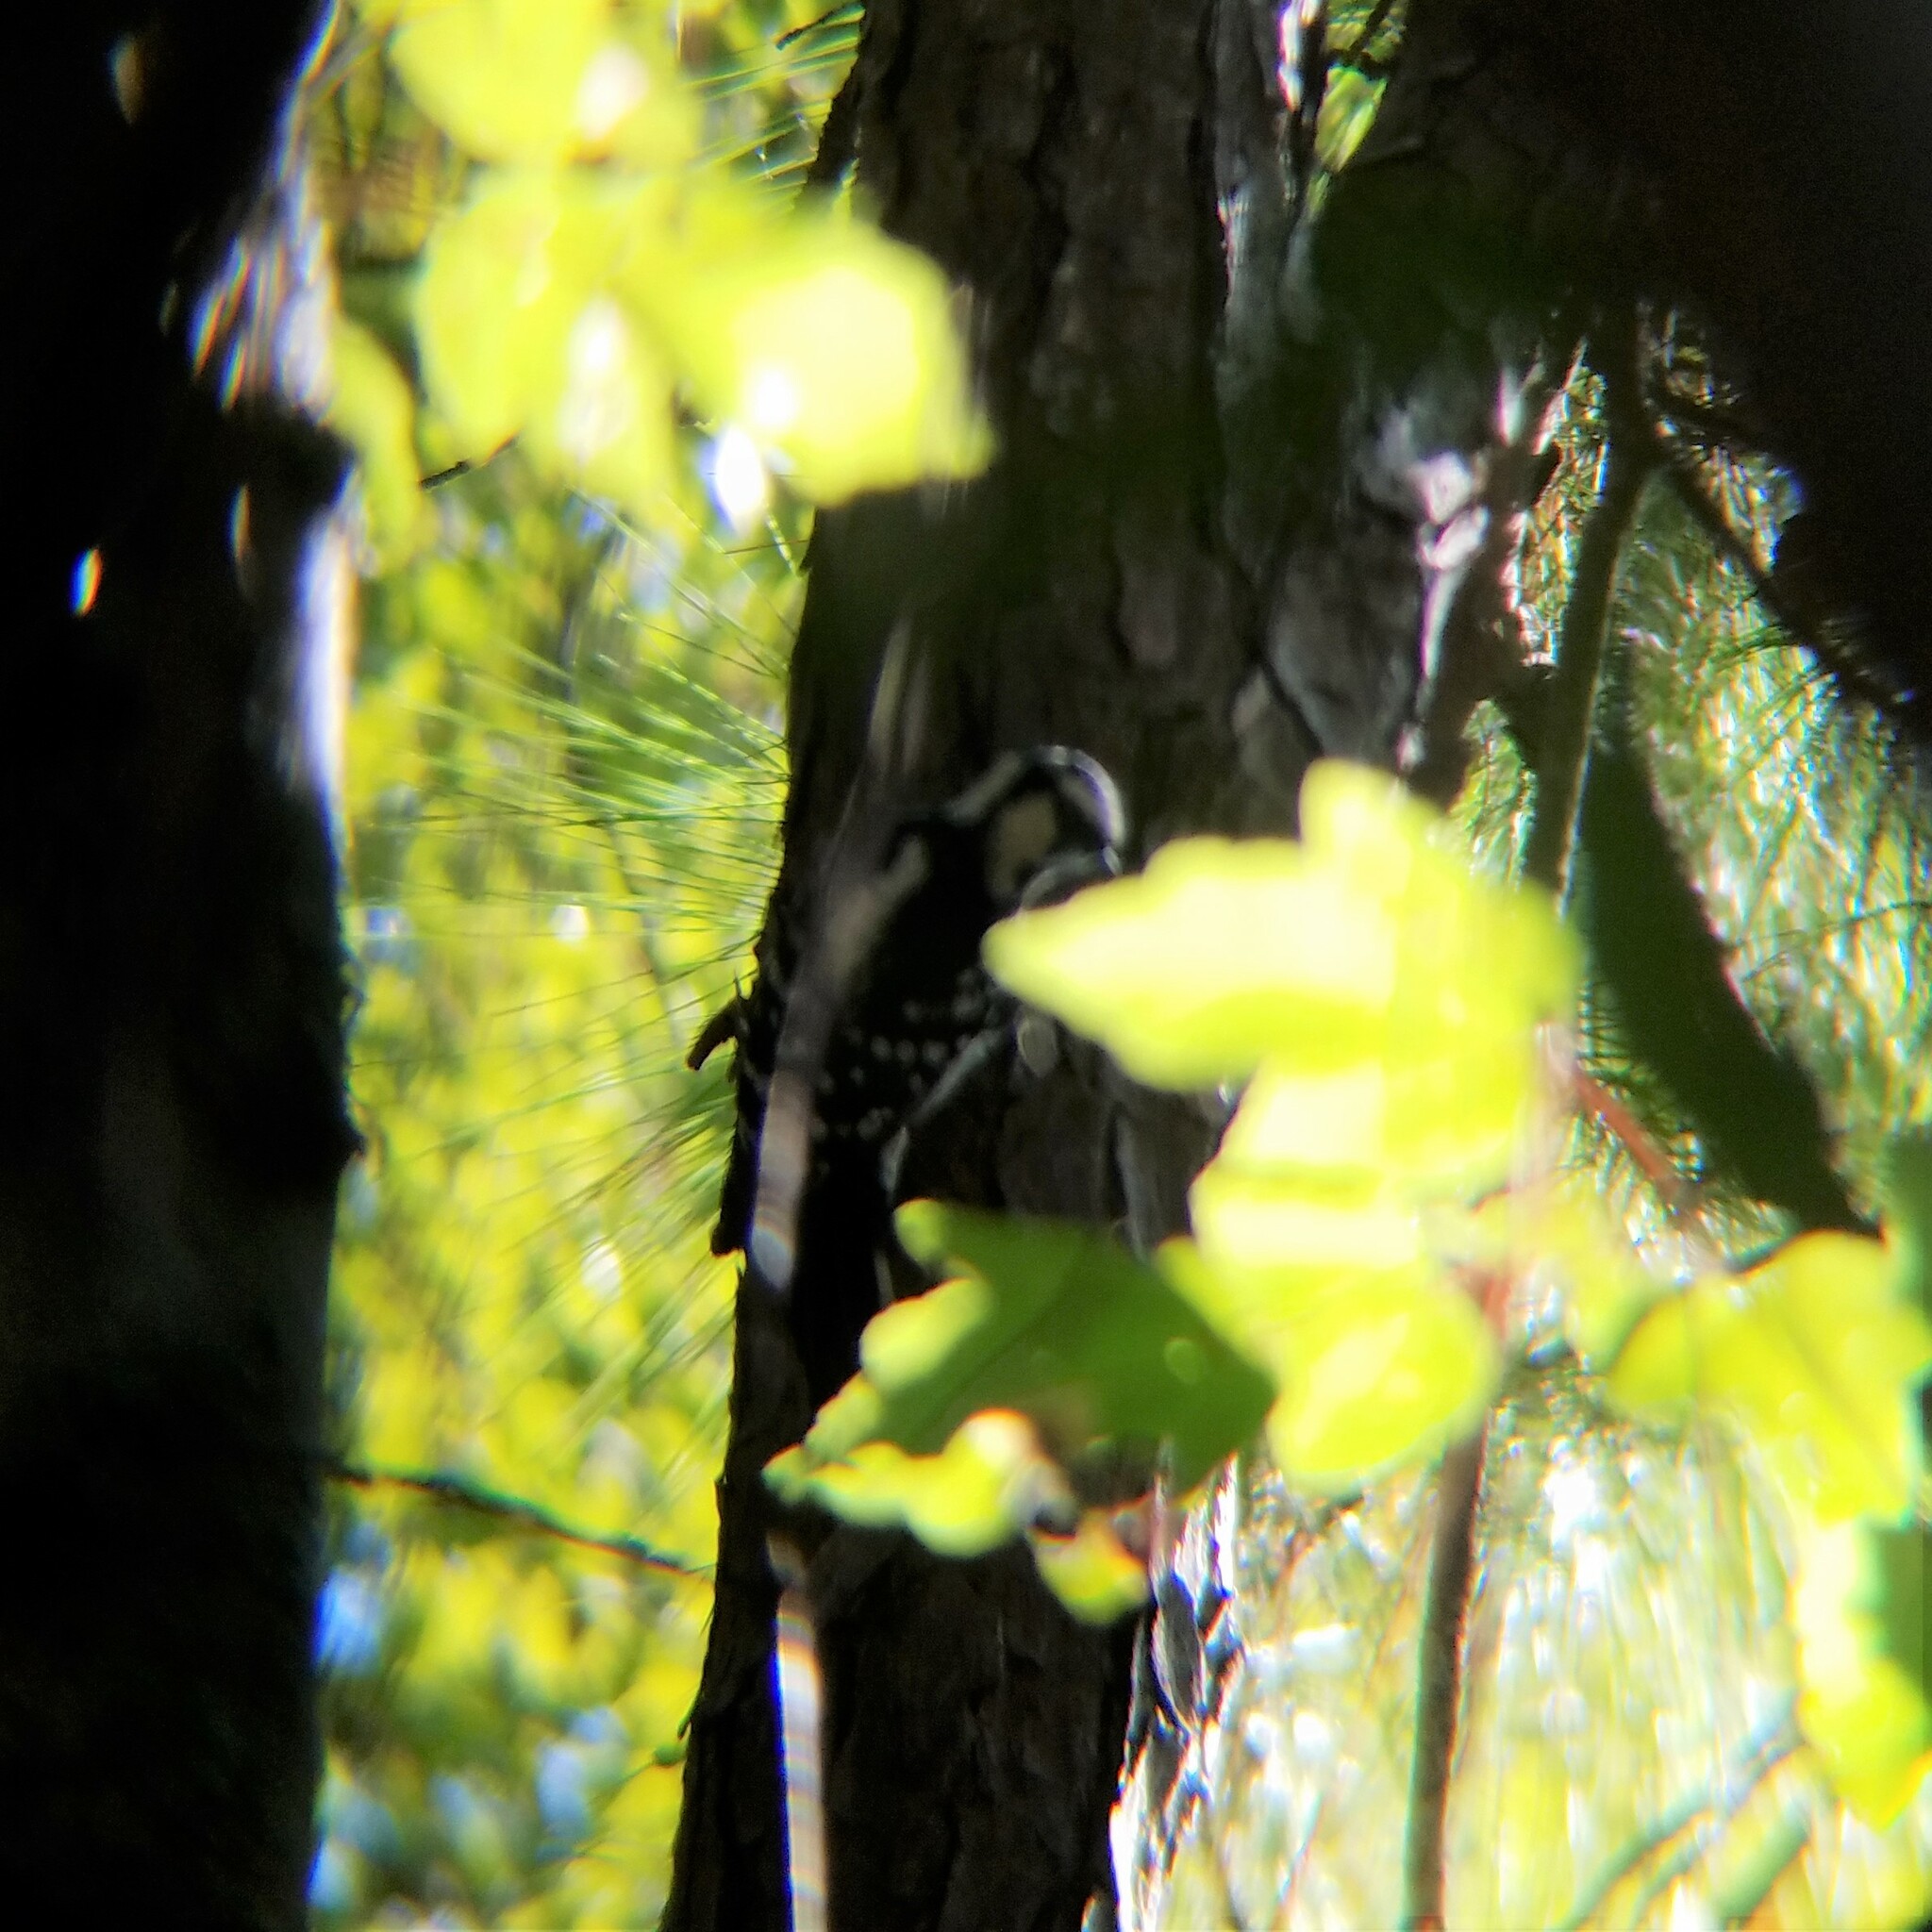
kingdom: Animalia
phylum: Chordata
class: Aves
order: Piciformes
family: Picidae
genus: Dryobates
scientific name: Dryobates pubescens
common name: Downy woodpecker
